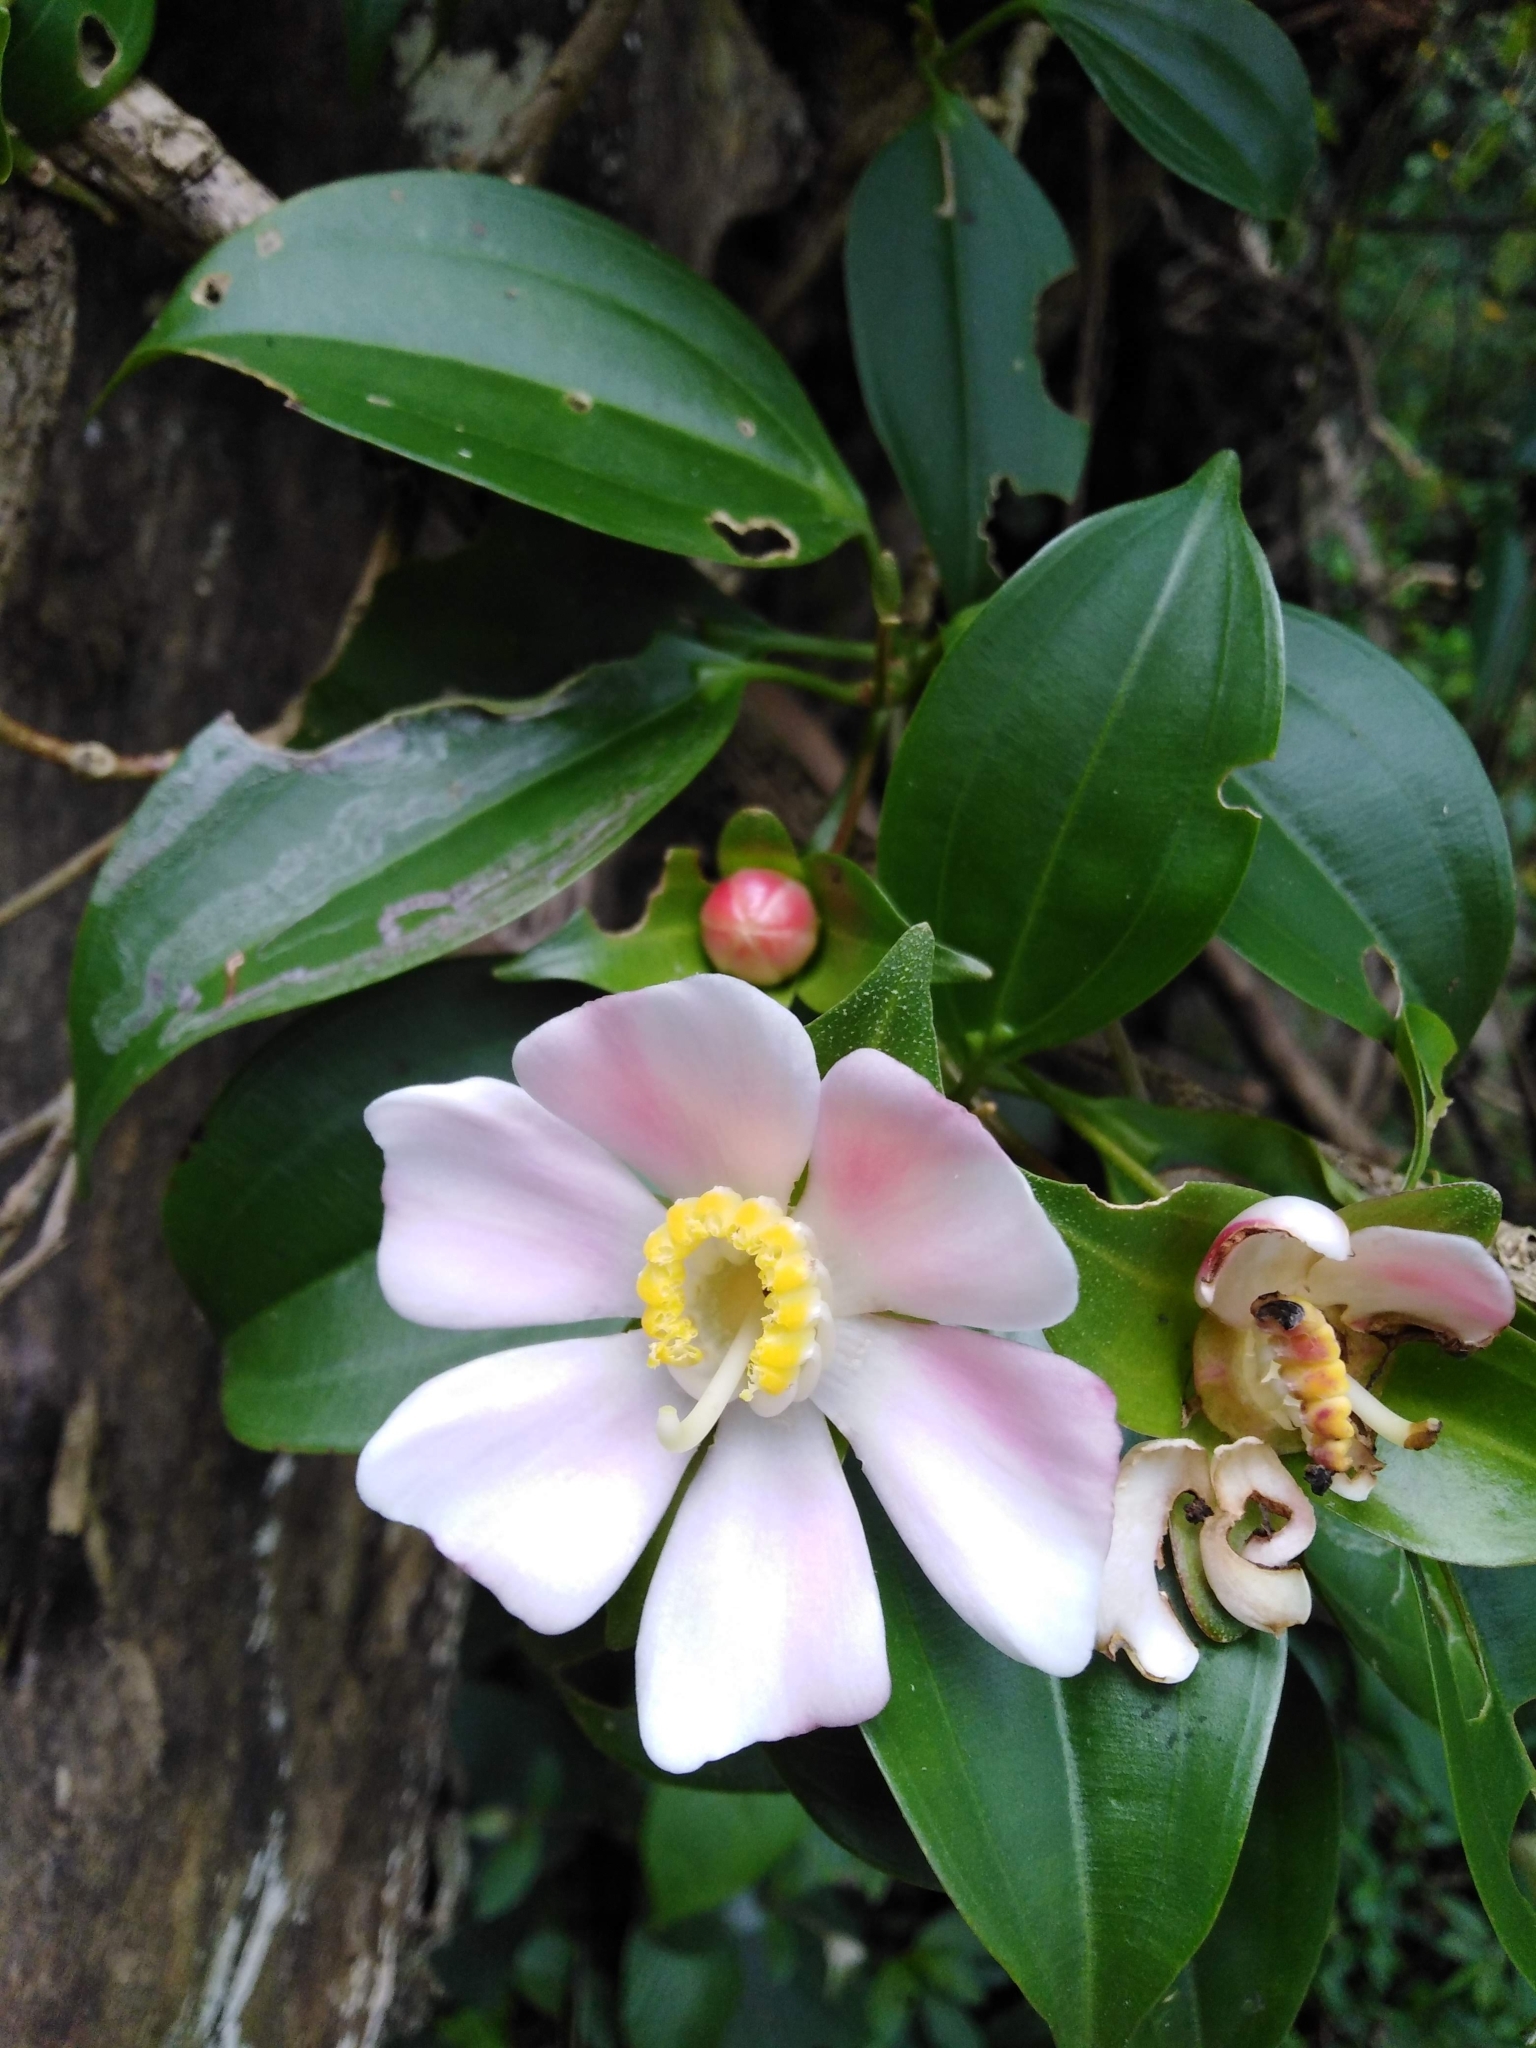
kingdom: Plantae
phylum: Tracheophyta
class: Magnoliopsida
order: Myrtales
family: Melastomataceae
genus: Blakea
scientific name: Blakea gracilis
